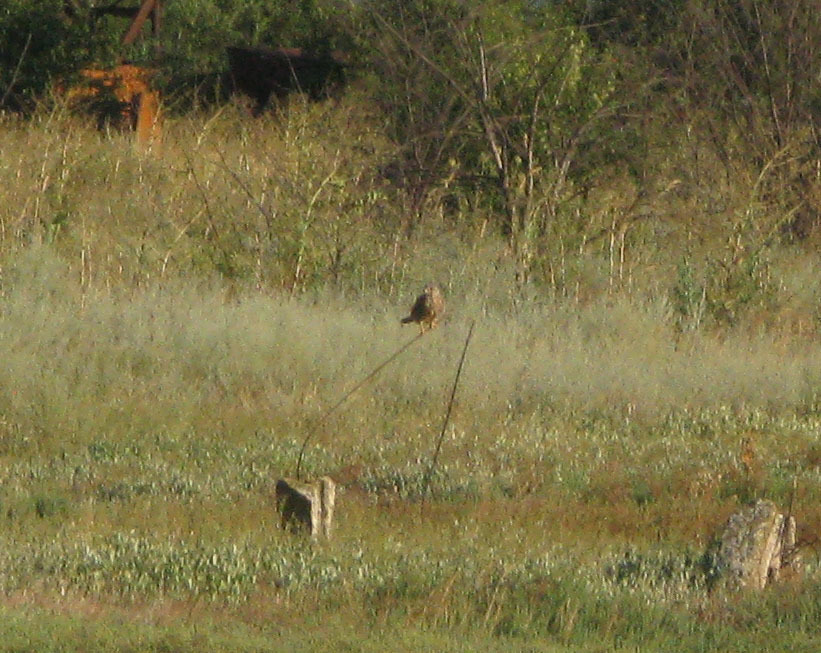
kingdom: Animalia
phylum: Chordata
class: Aves
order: Falconiformes
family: Falconidae
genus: Falco
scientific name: Falco tinnunculus
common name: Common kestrel
